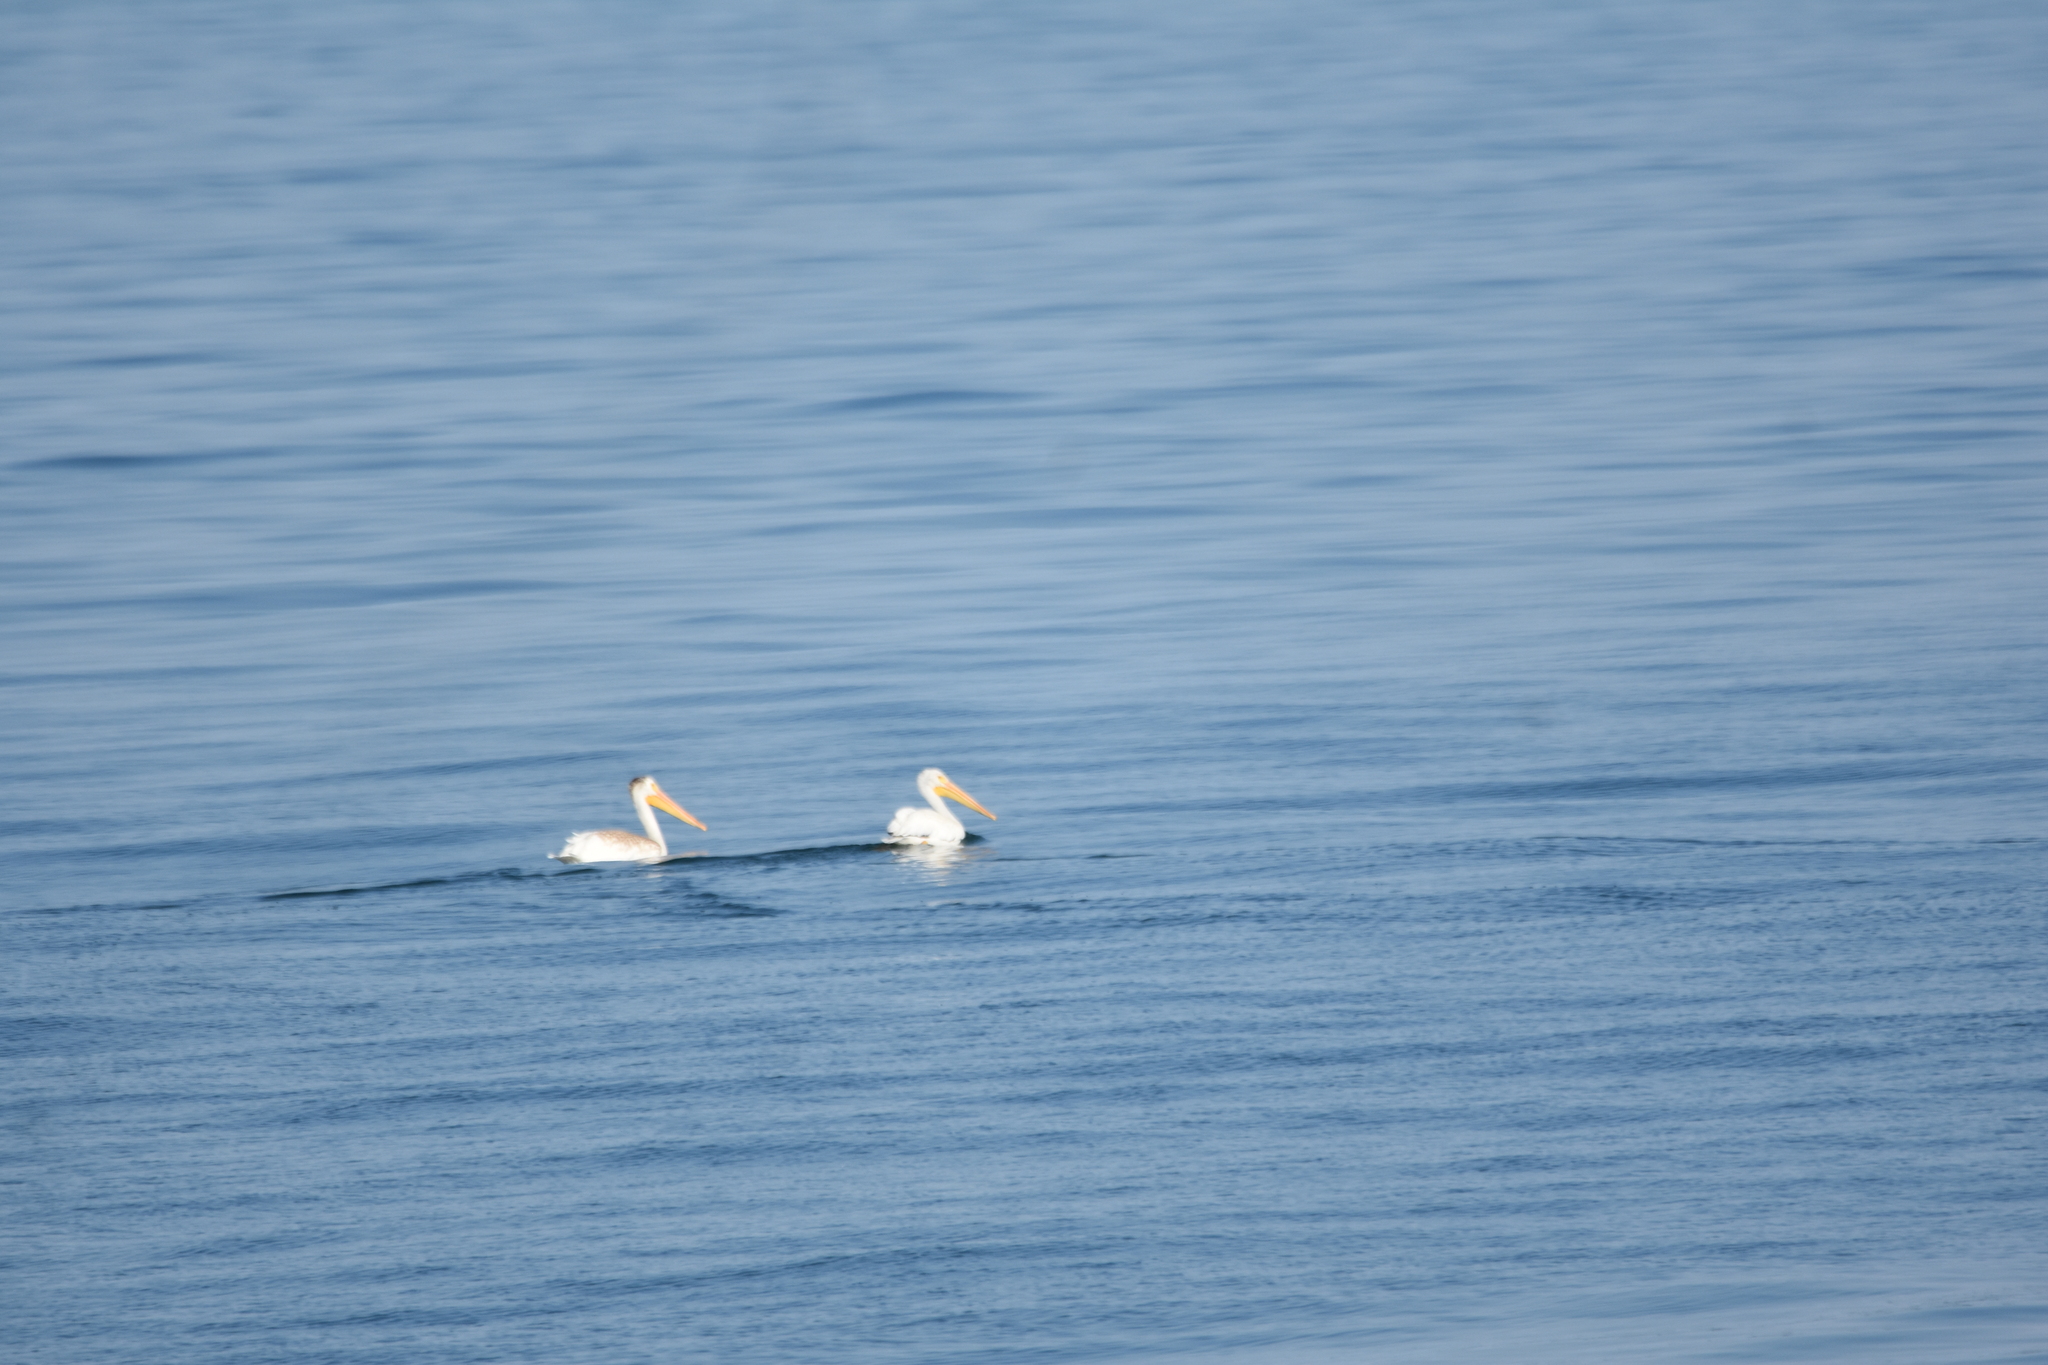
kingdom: Animalia
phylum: Chordata
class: Aves
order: Pelecaniformes
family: Pelecanidae
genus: Pelecanus
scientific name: Pelecanus erythrorhynchos
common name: American white pelican
